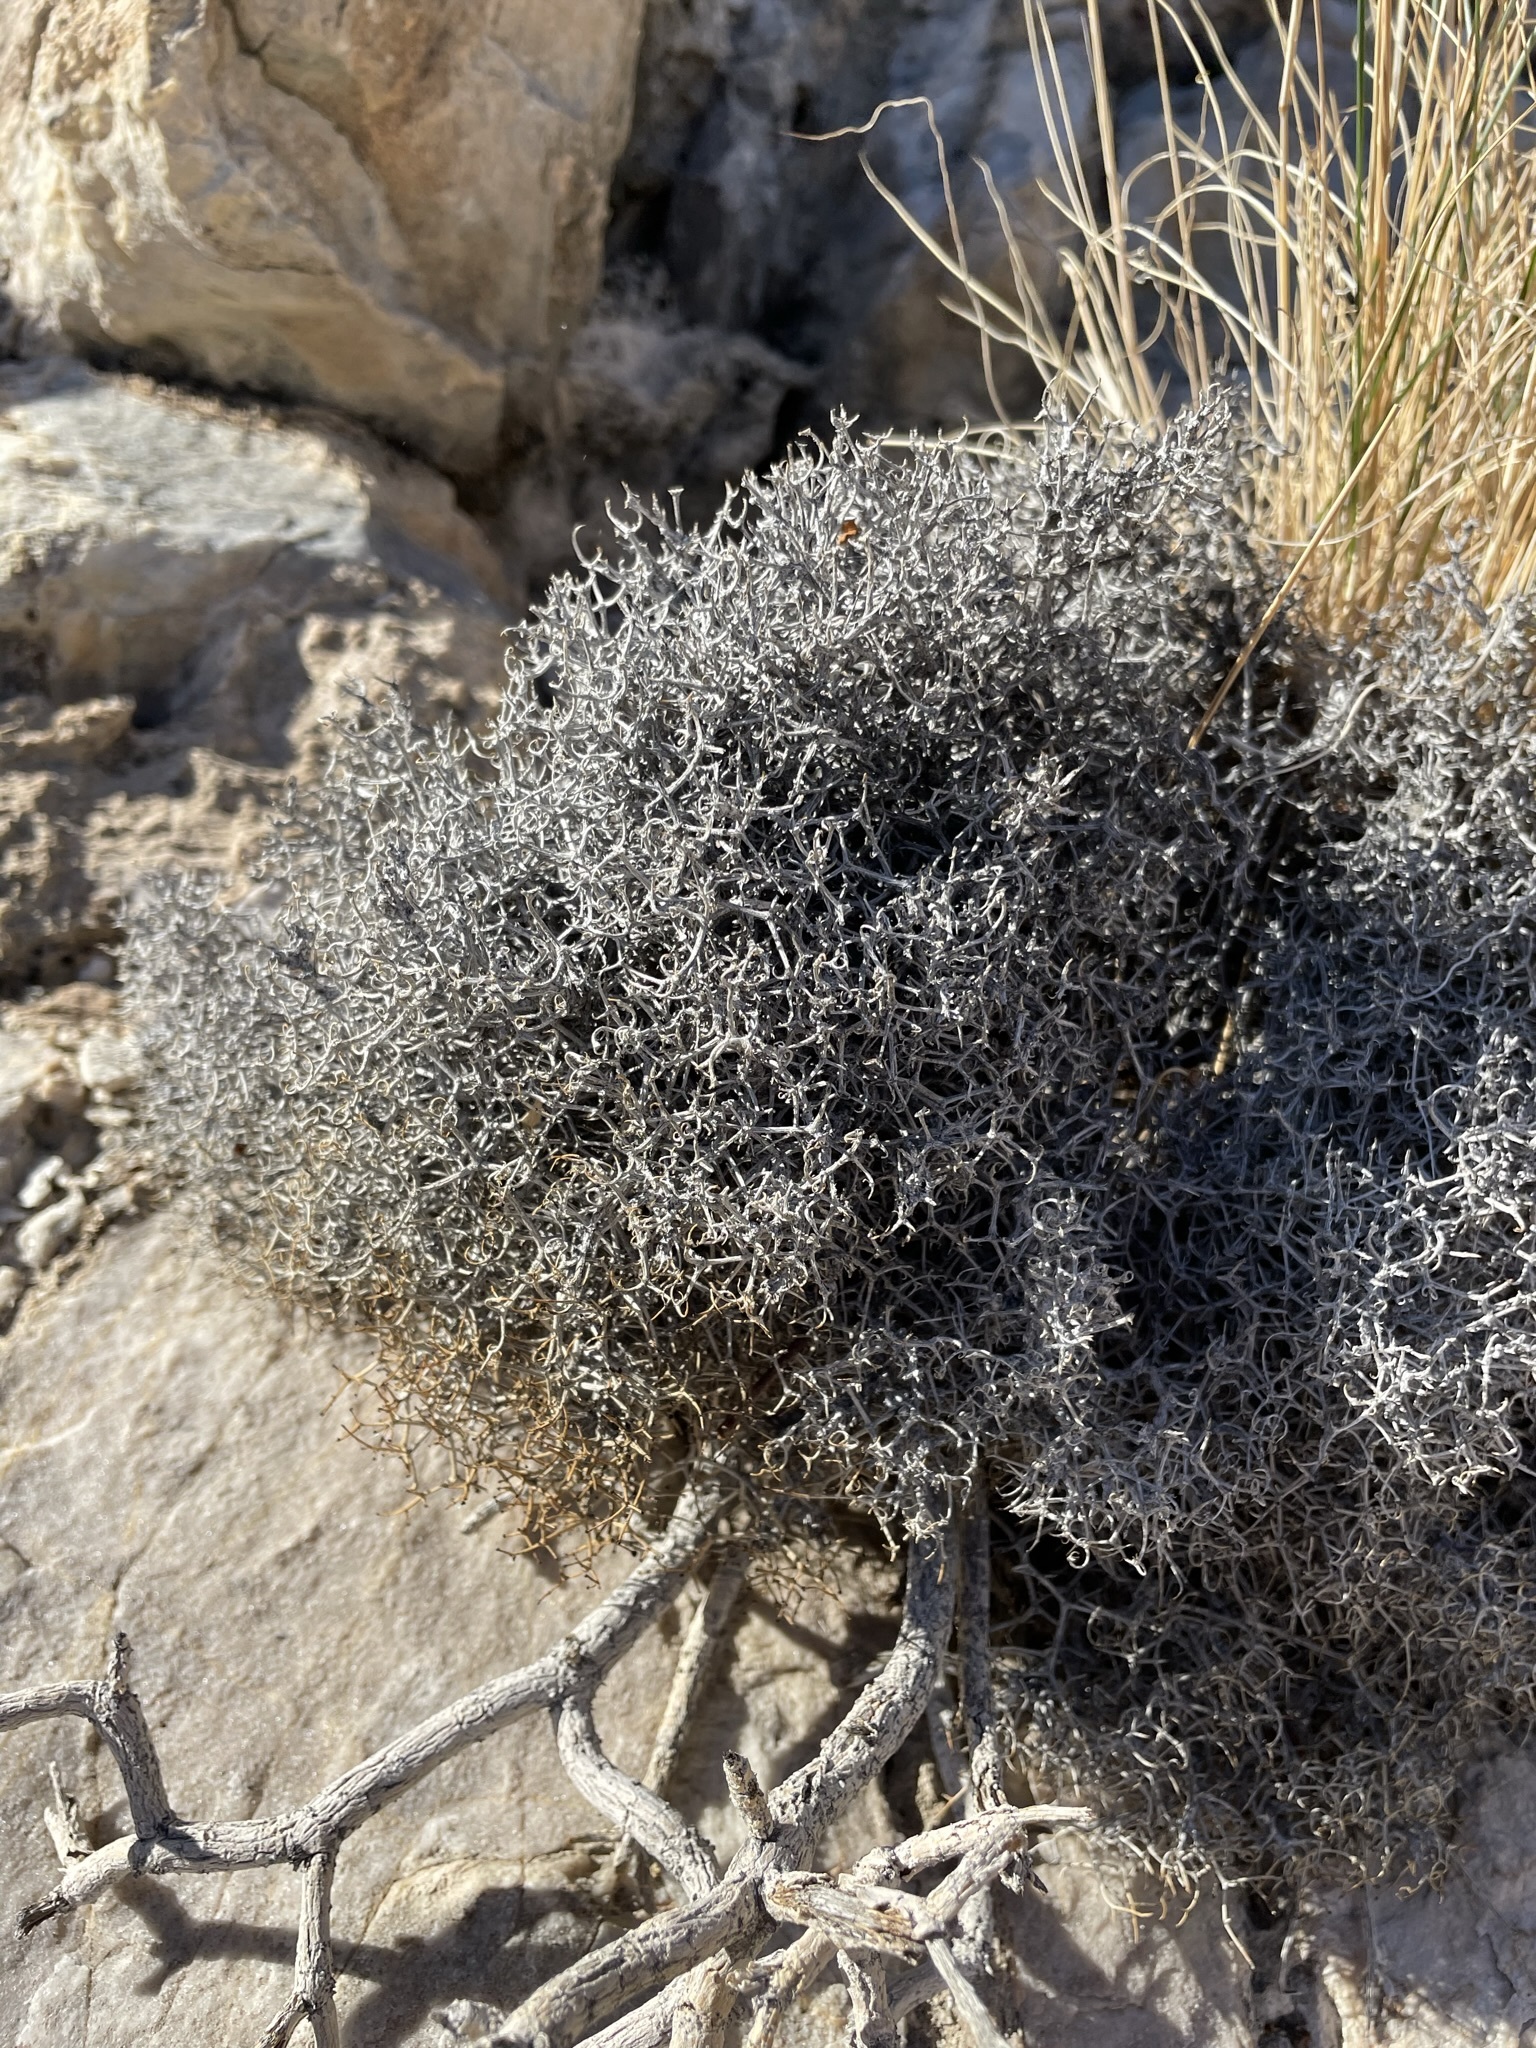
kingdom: Plantae
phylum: Tracheophyta
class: Magnoliopsida
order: Caryophyllales
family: Polygonaceae
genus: Eriogonum
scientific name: Eriogonum heermannii
